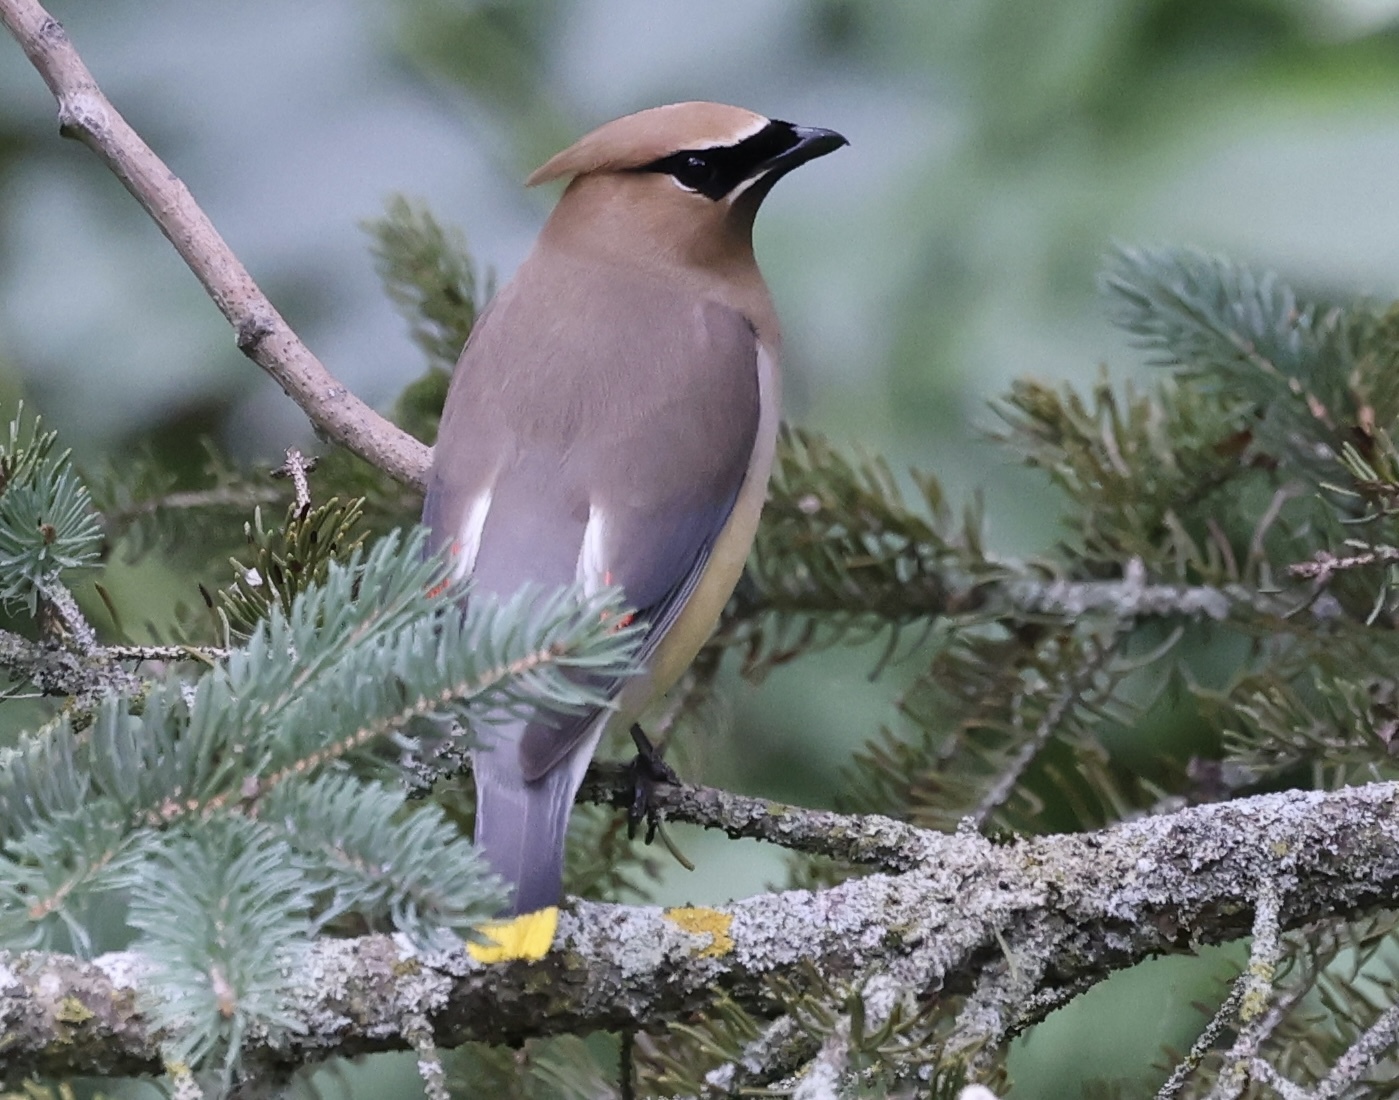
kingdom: Animalia
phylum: Chordata
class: Aves
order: Passeriformes
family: Bombycillidae
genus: Bombycilla
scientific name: Bombycilla cedrorum
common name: Cedar waxwing
